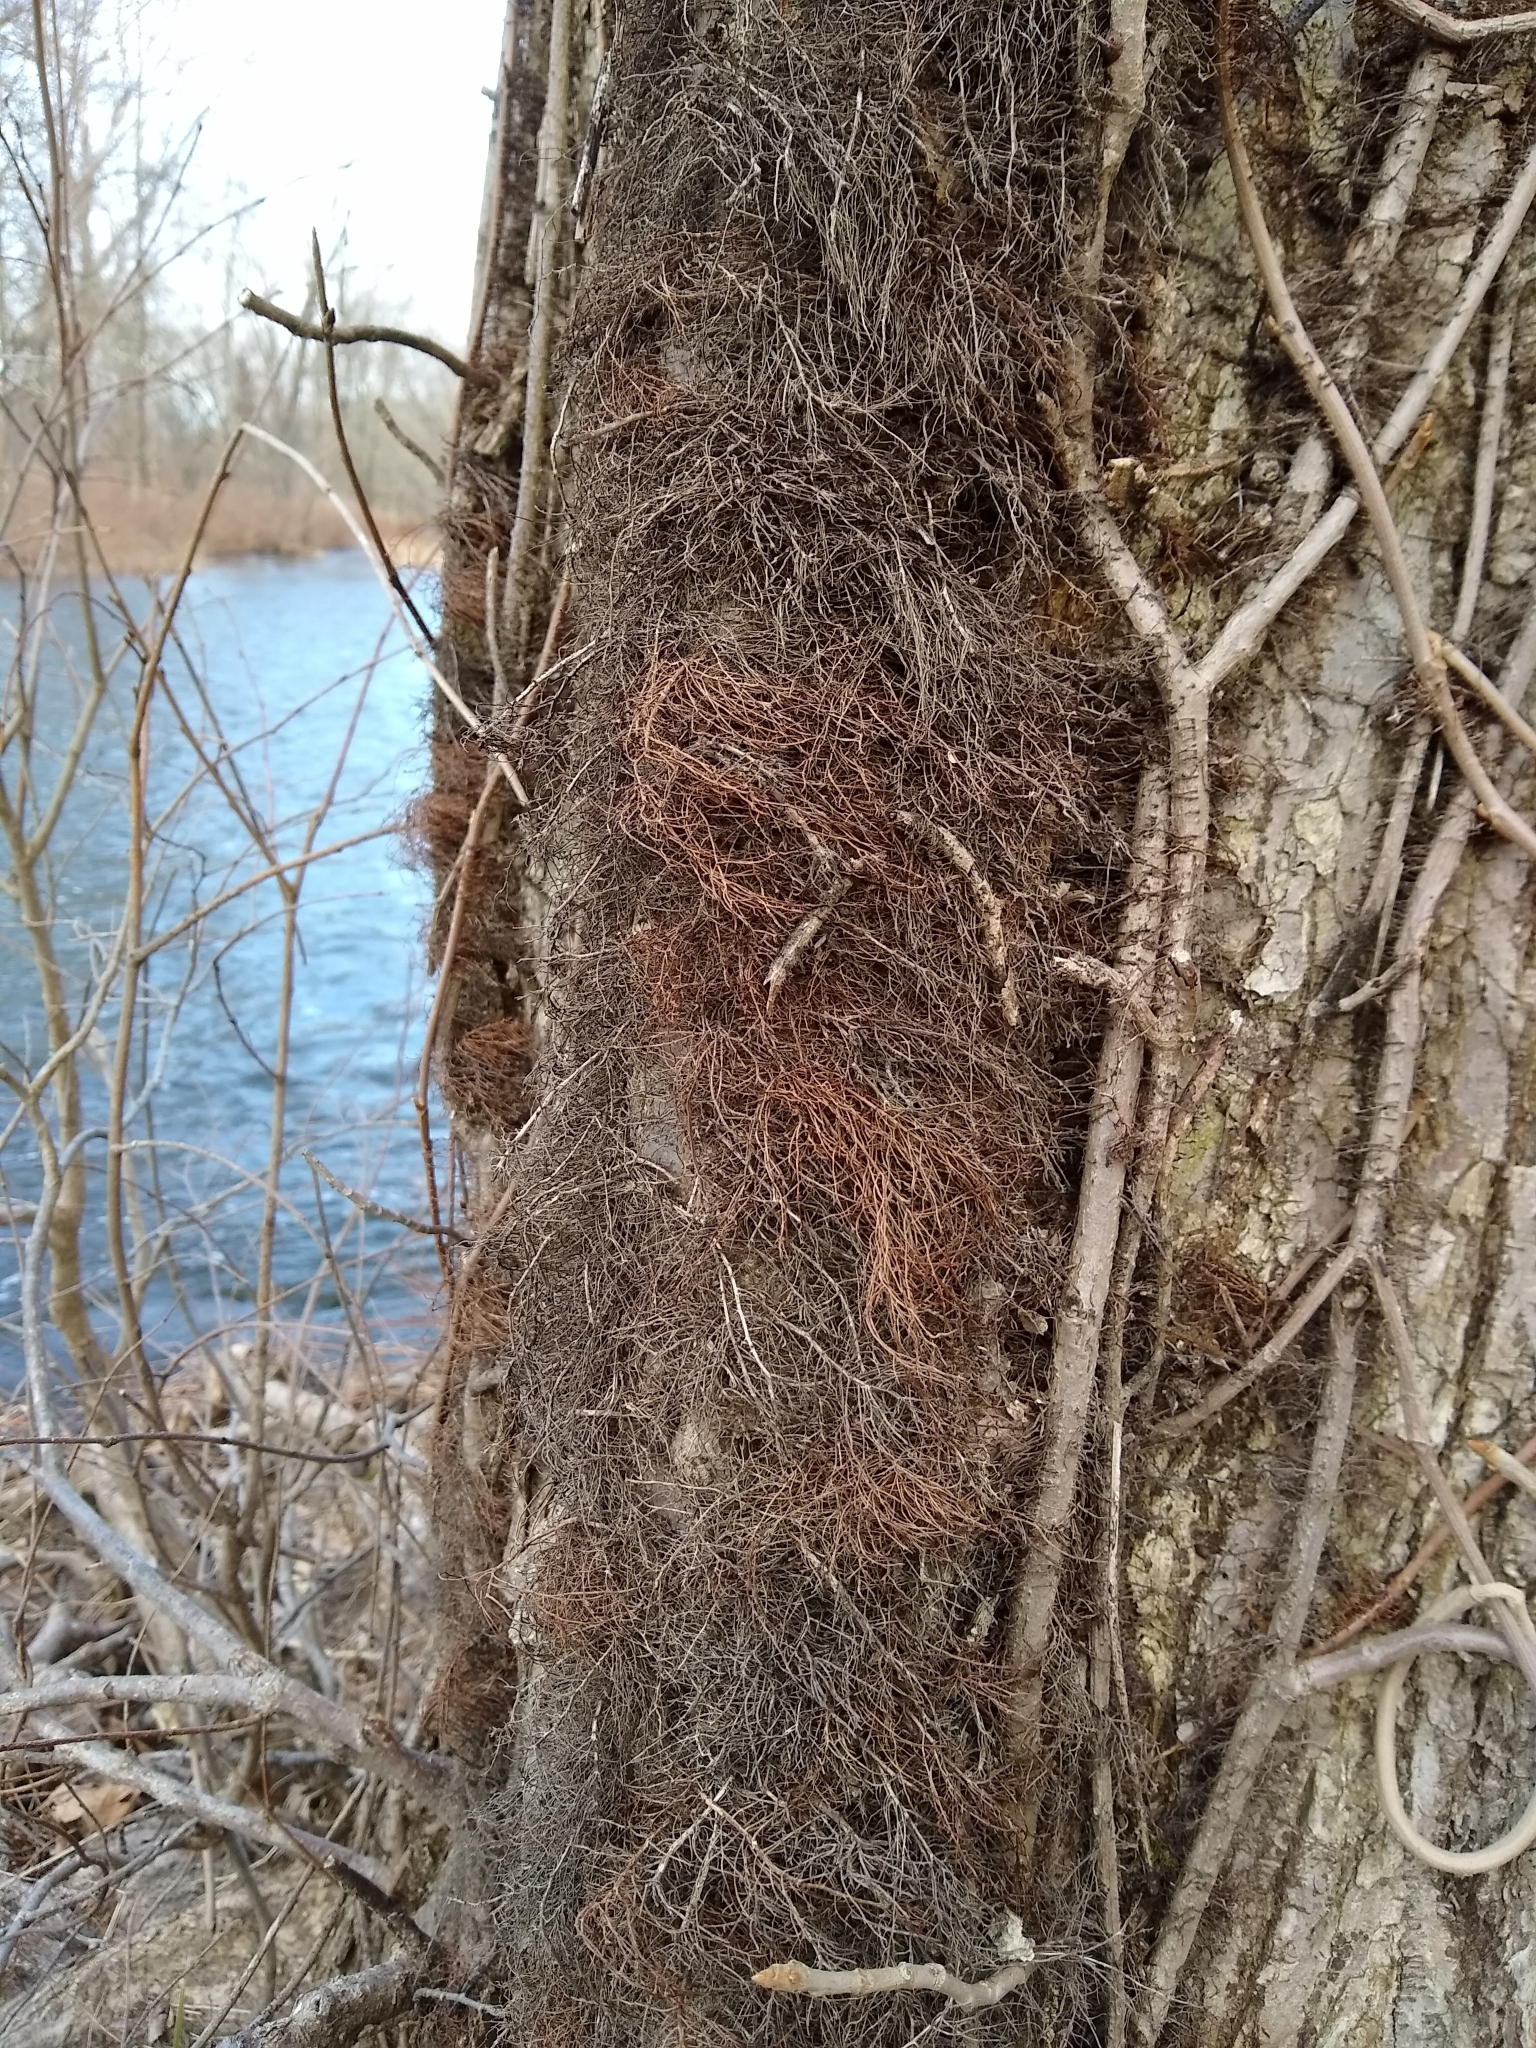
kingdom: Plantae
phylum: Tracheophyta
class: Magnoliopsida
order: Sapindales
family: Anacardiaceae
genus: Toxicodendron
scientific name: Toxicodendron radicans
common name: Poison ivy
